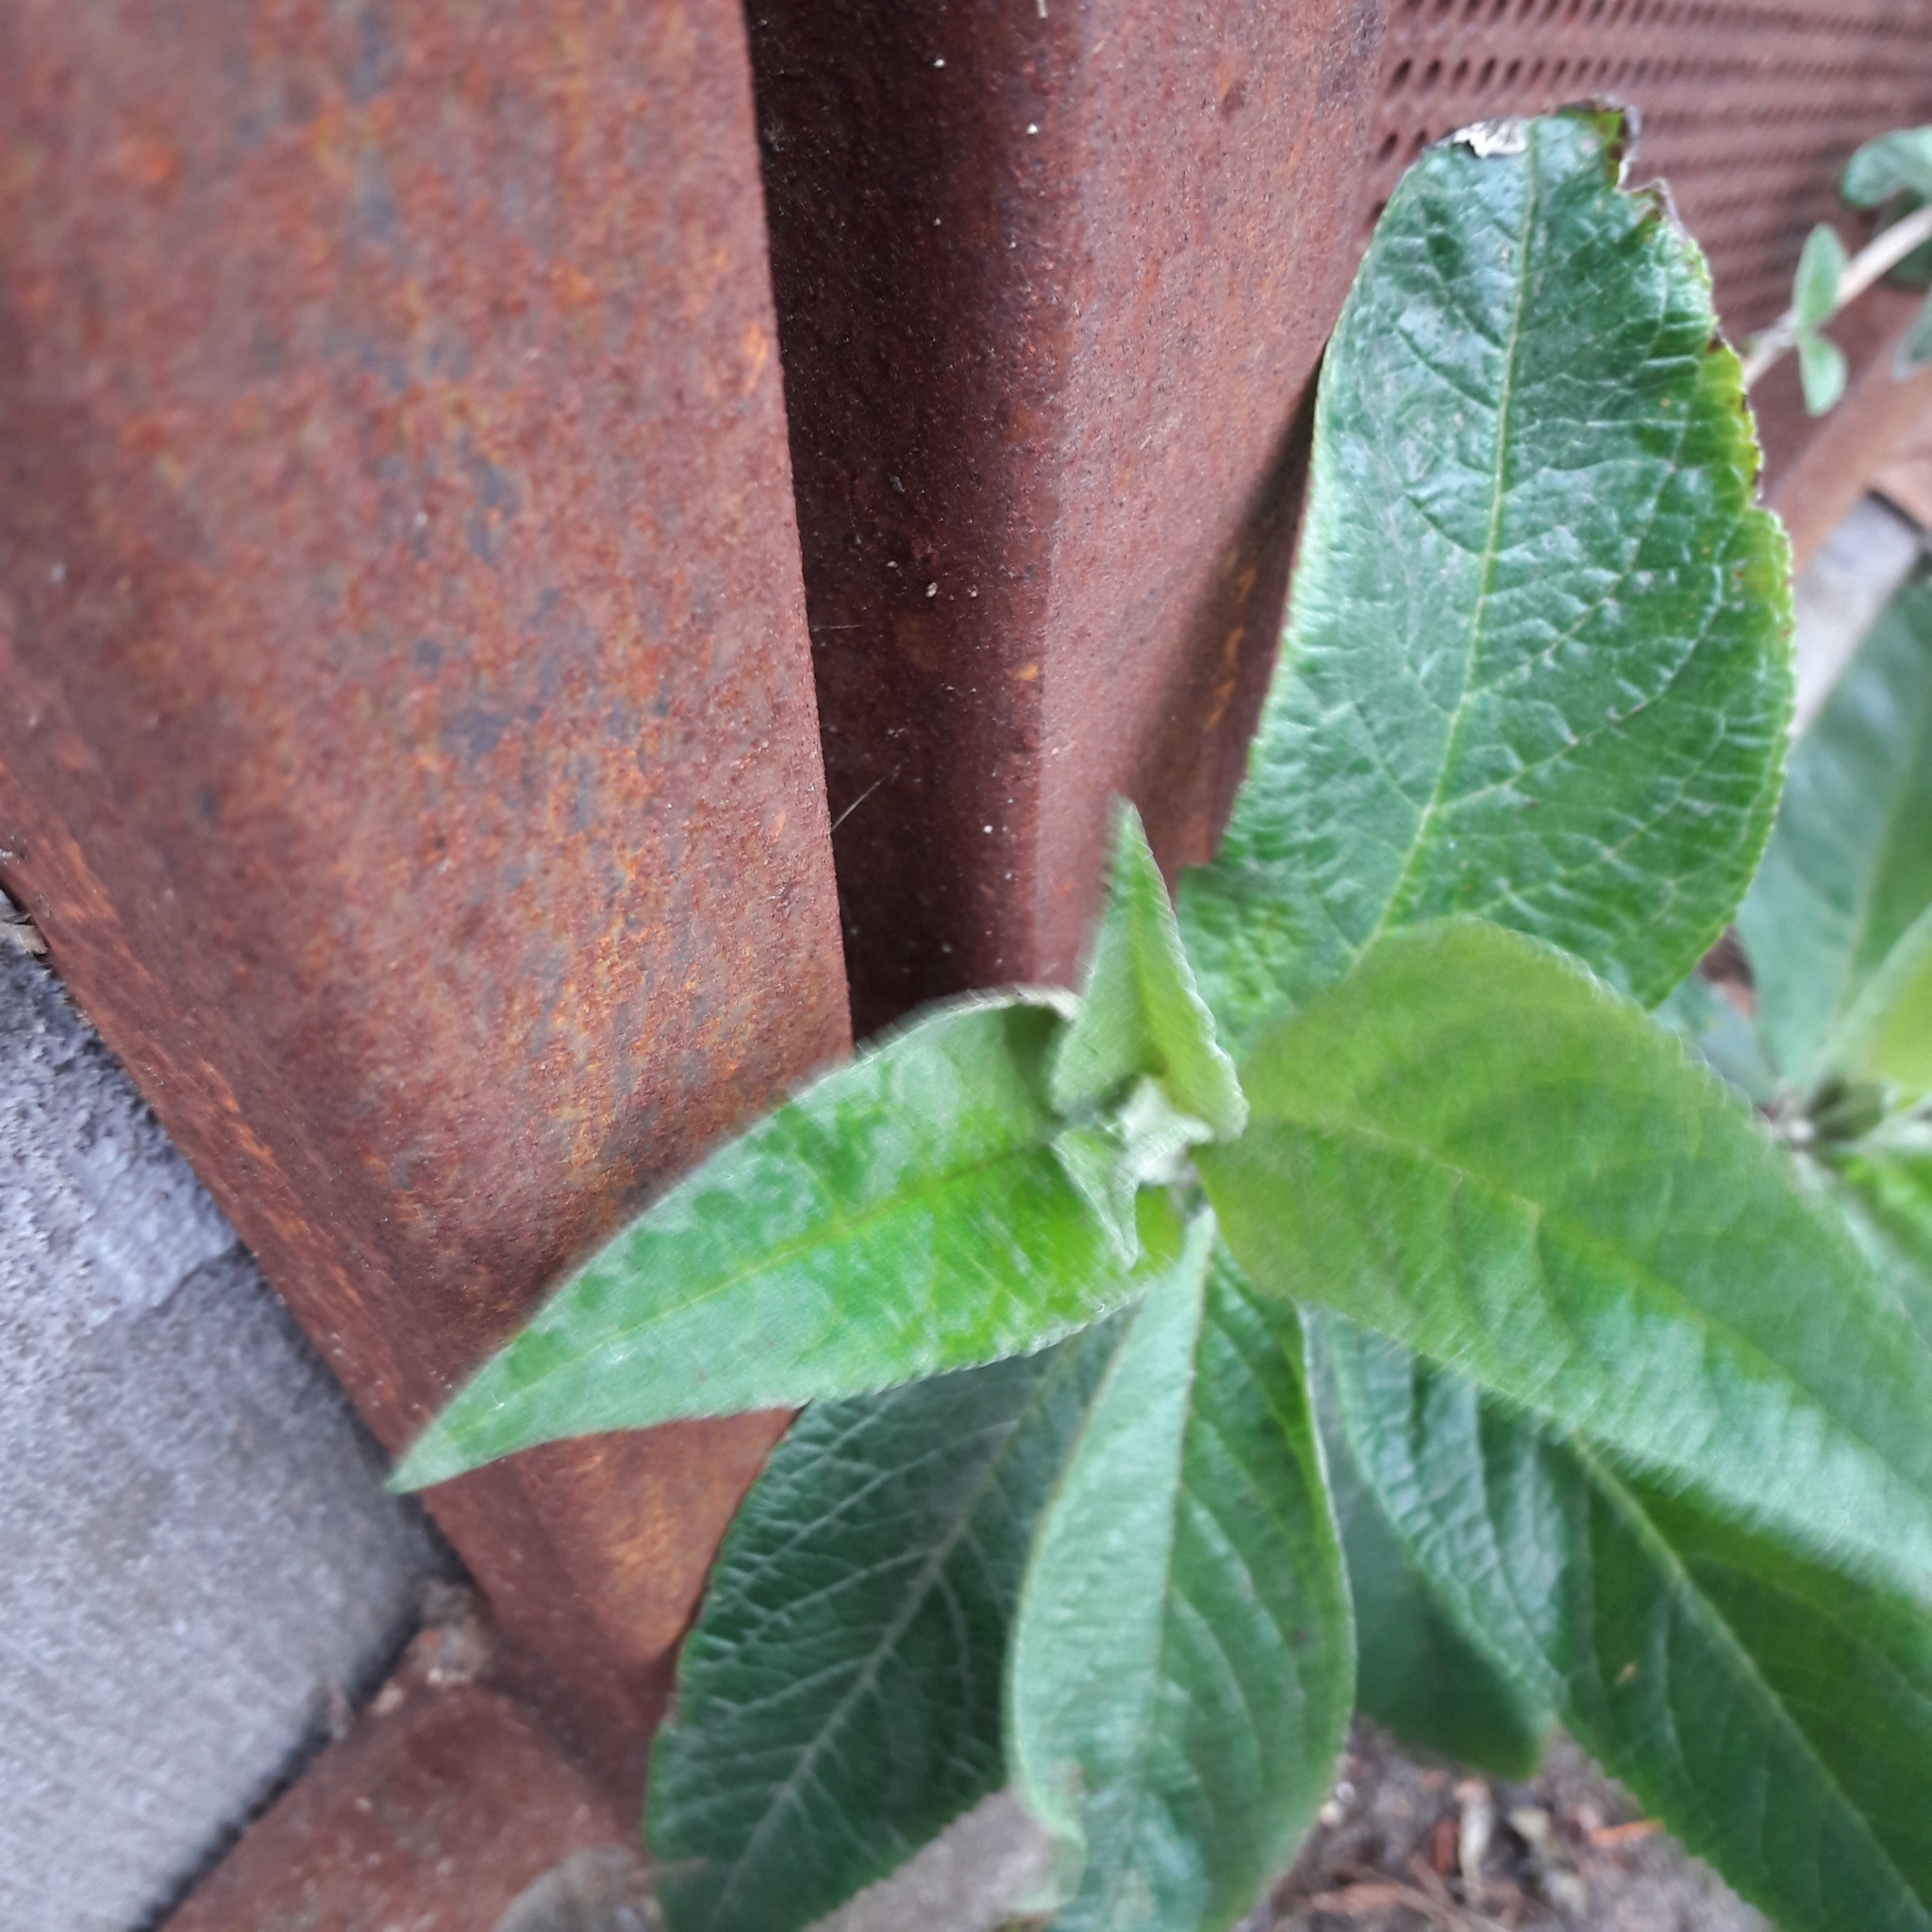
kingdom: Plantae
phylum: Tracheophyta
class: Magnoliopsida
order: Lamiales
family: Scrophulariaceae
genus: Buddleja
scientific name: Buddleja davidii
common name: Butterfly-bush
